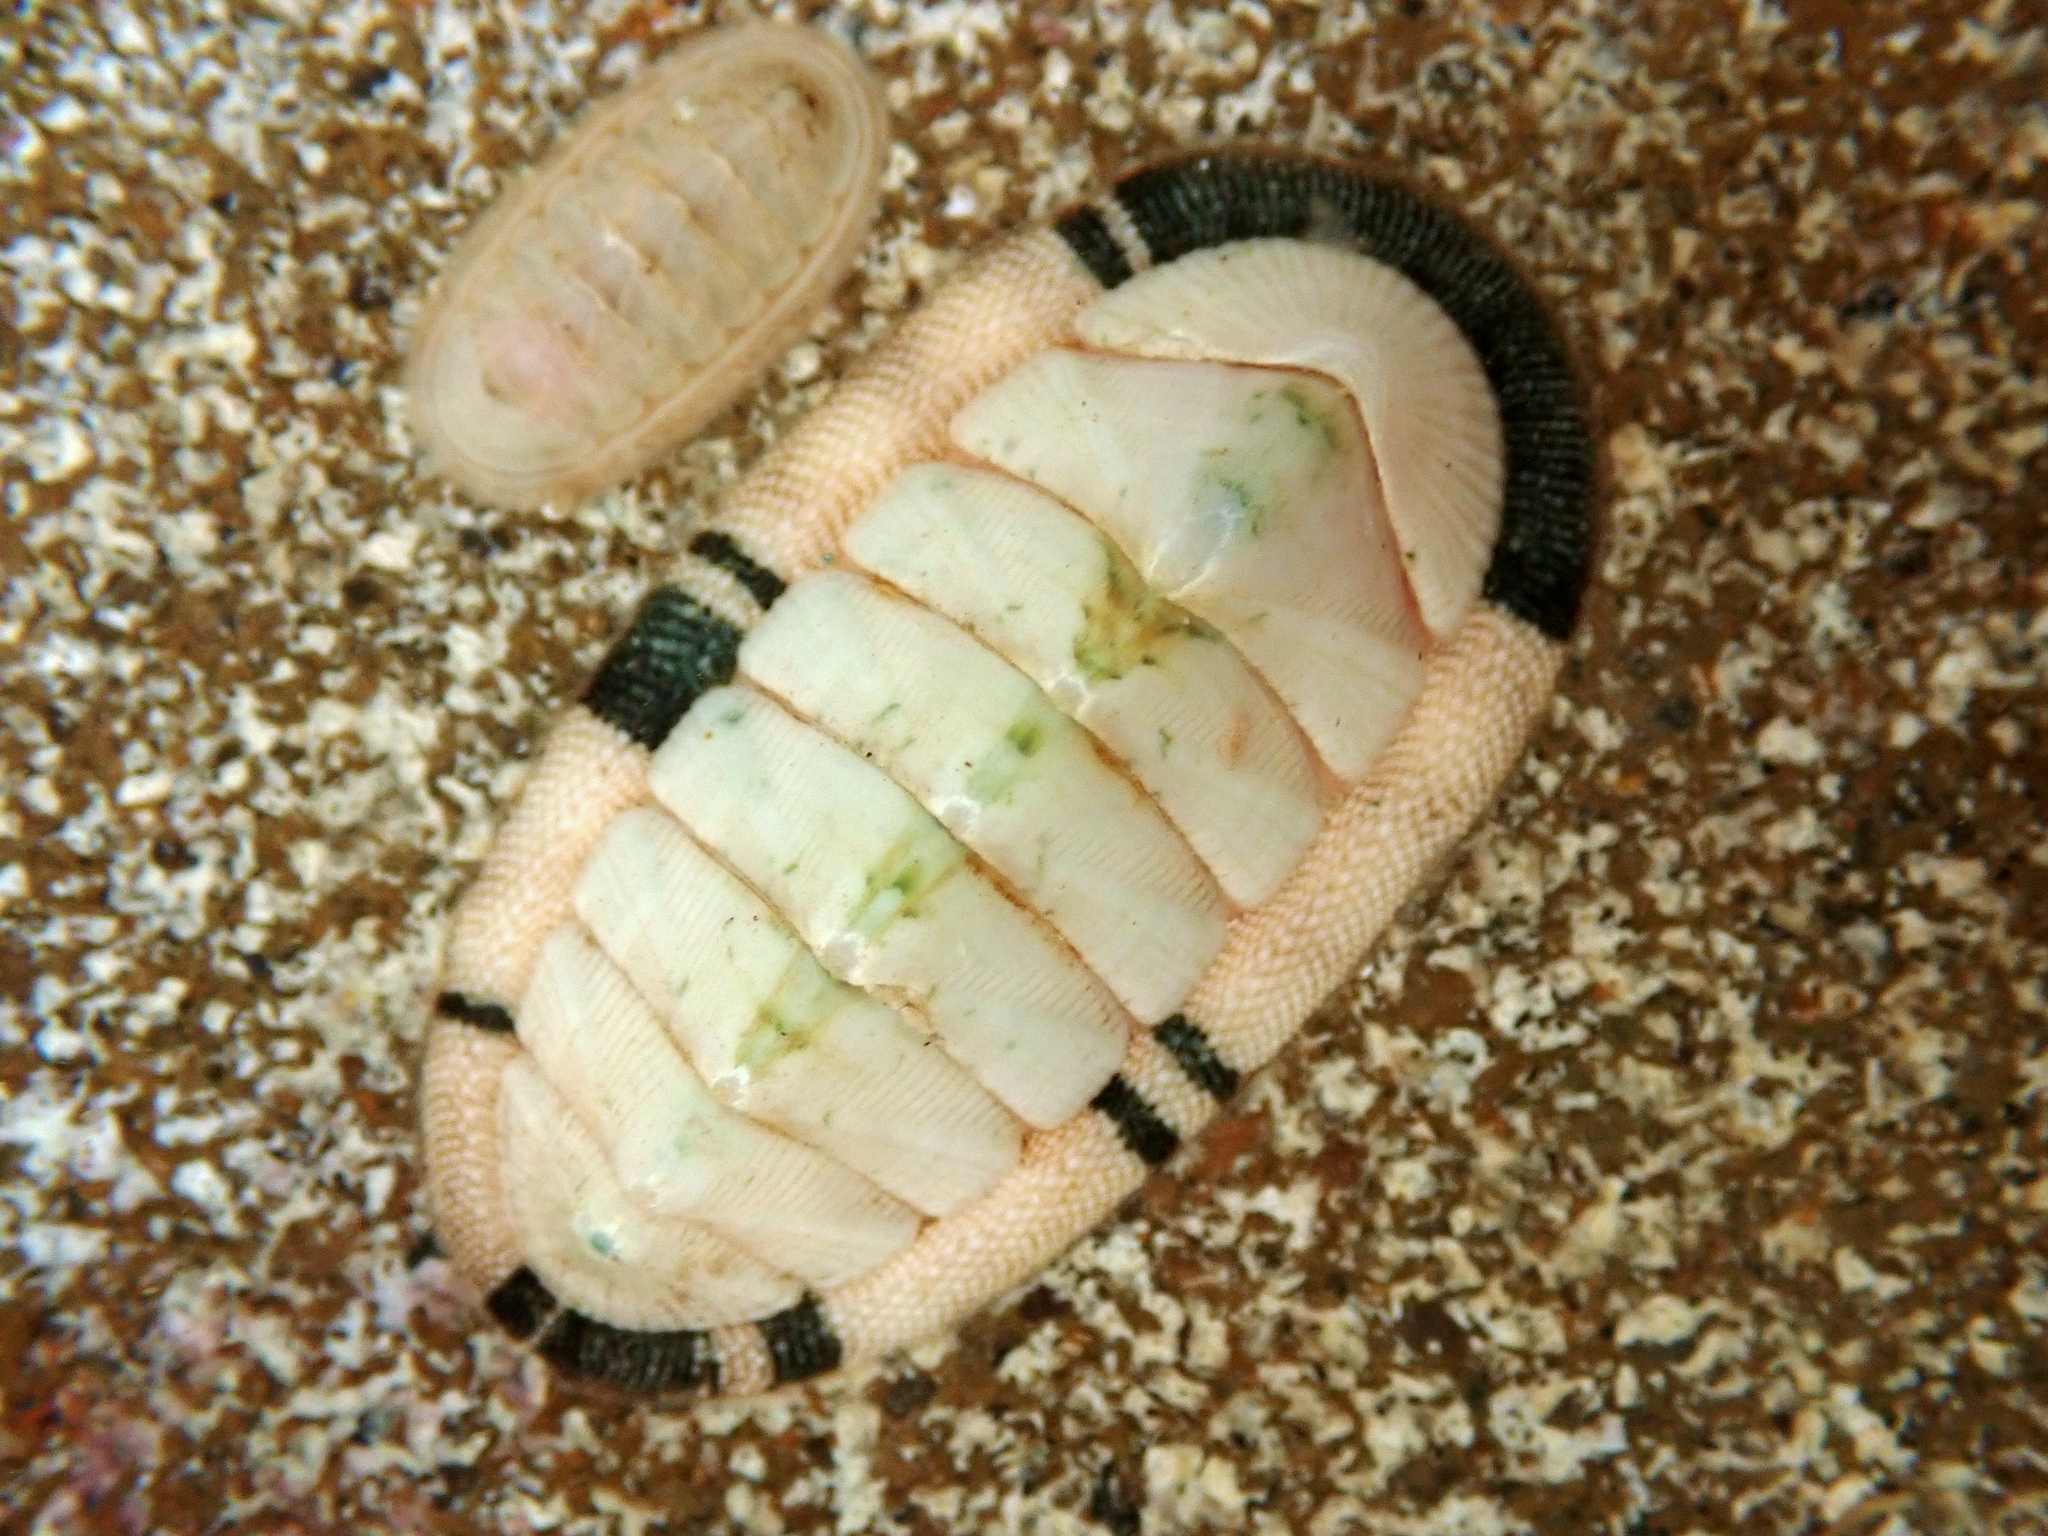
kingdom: Animalia
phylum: Mollusca
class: Polyplacophora
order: Chitonida
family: Chitonidae
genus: Rhyssoplax
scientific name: Rhyssoplax aerea
